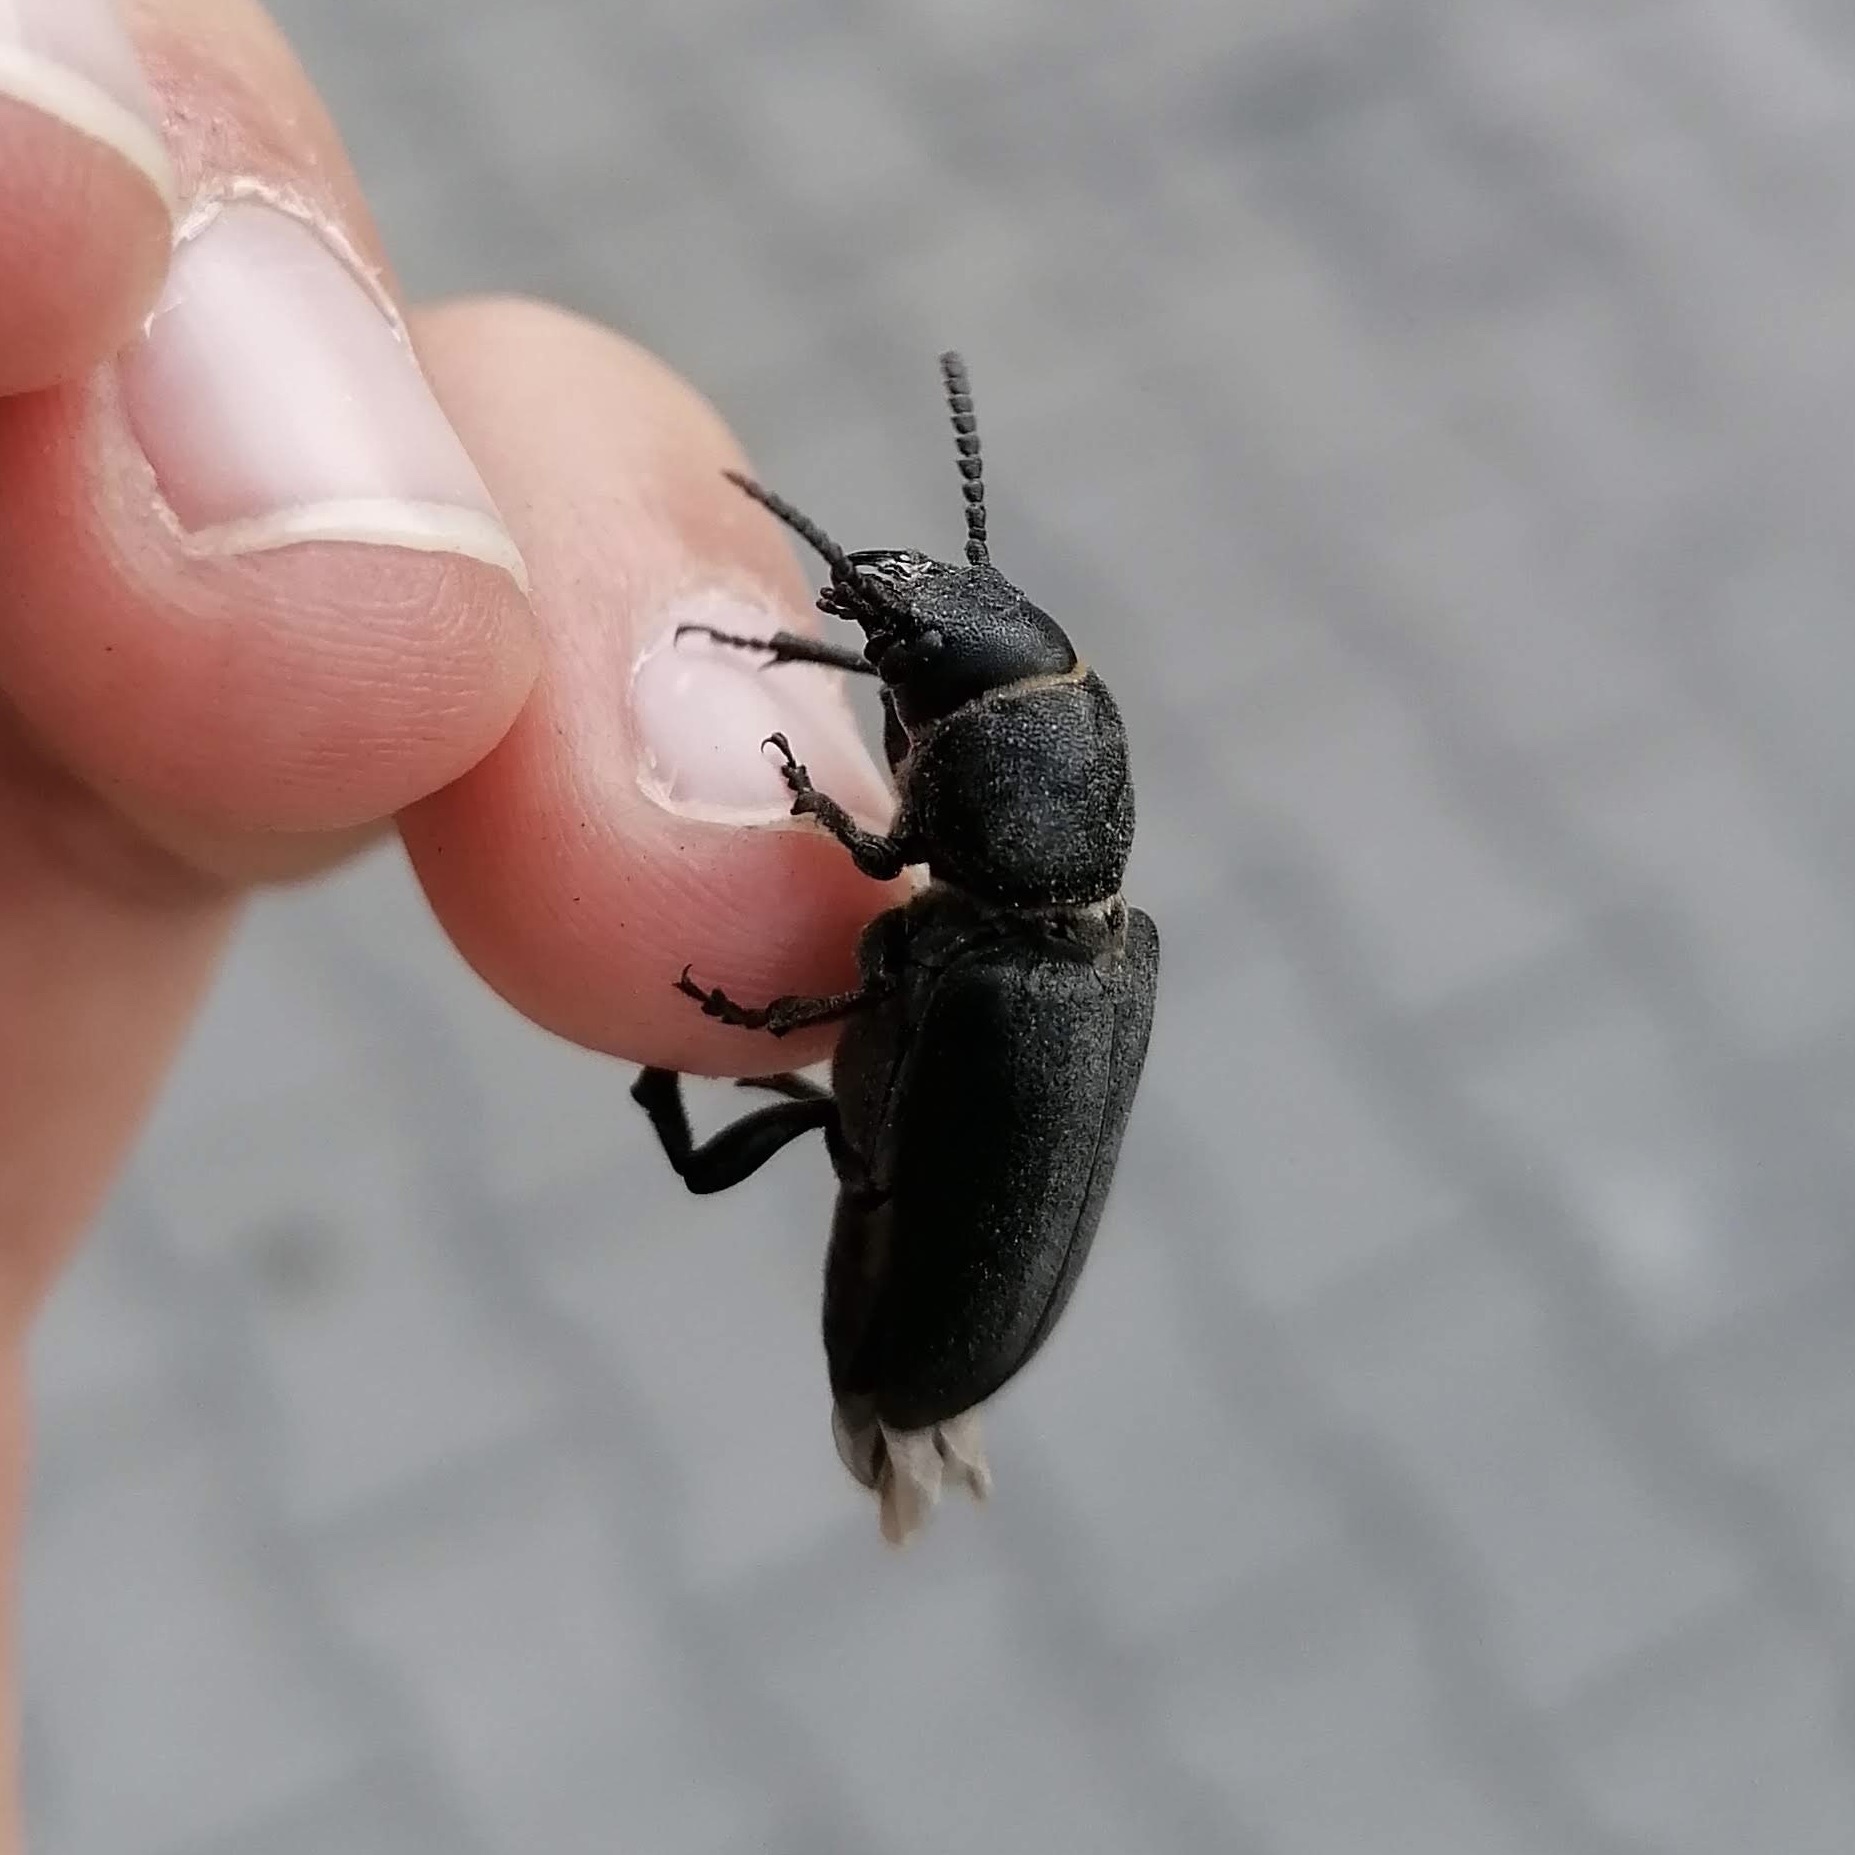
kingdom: Animalia
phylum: Arthropoda
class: Insecta
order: Coleoptera
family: Cerambycidae
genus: Spondylis
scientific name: Spondylis buprestoides
